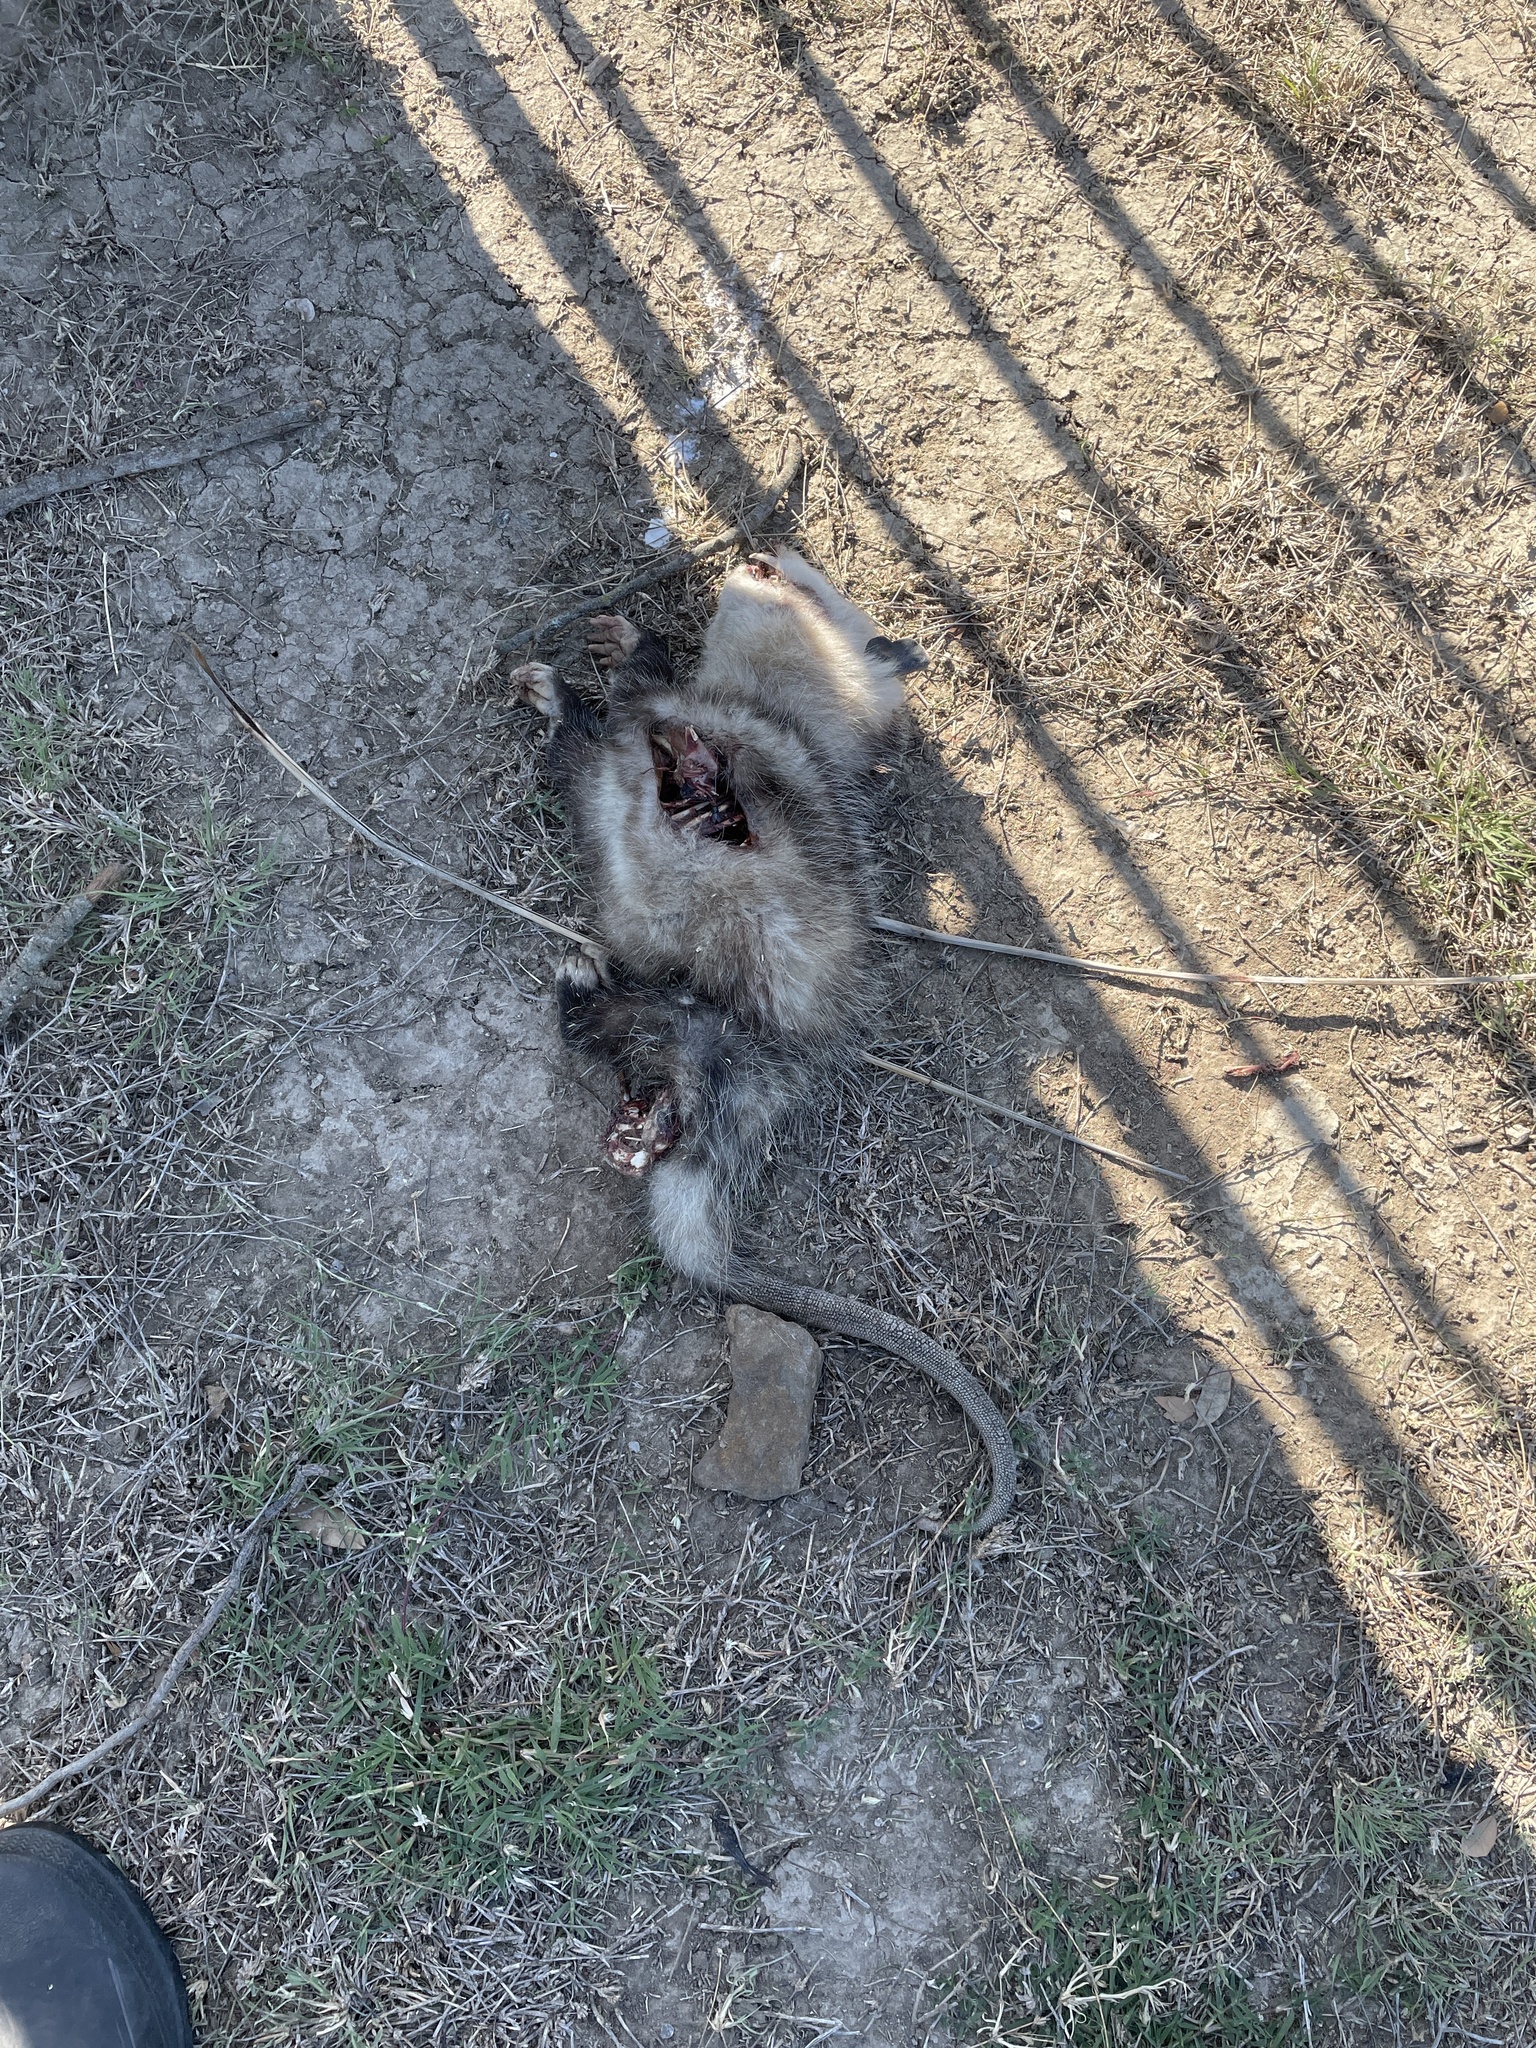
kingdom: Animalia
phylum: Chordata
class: Mammalia
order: Didelphimorphia
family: Didelphidae
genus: Didelphis
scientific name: Didelphis virginiana
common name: Virginia opossum
